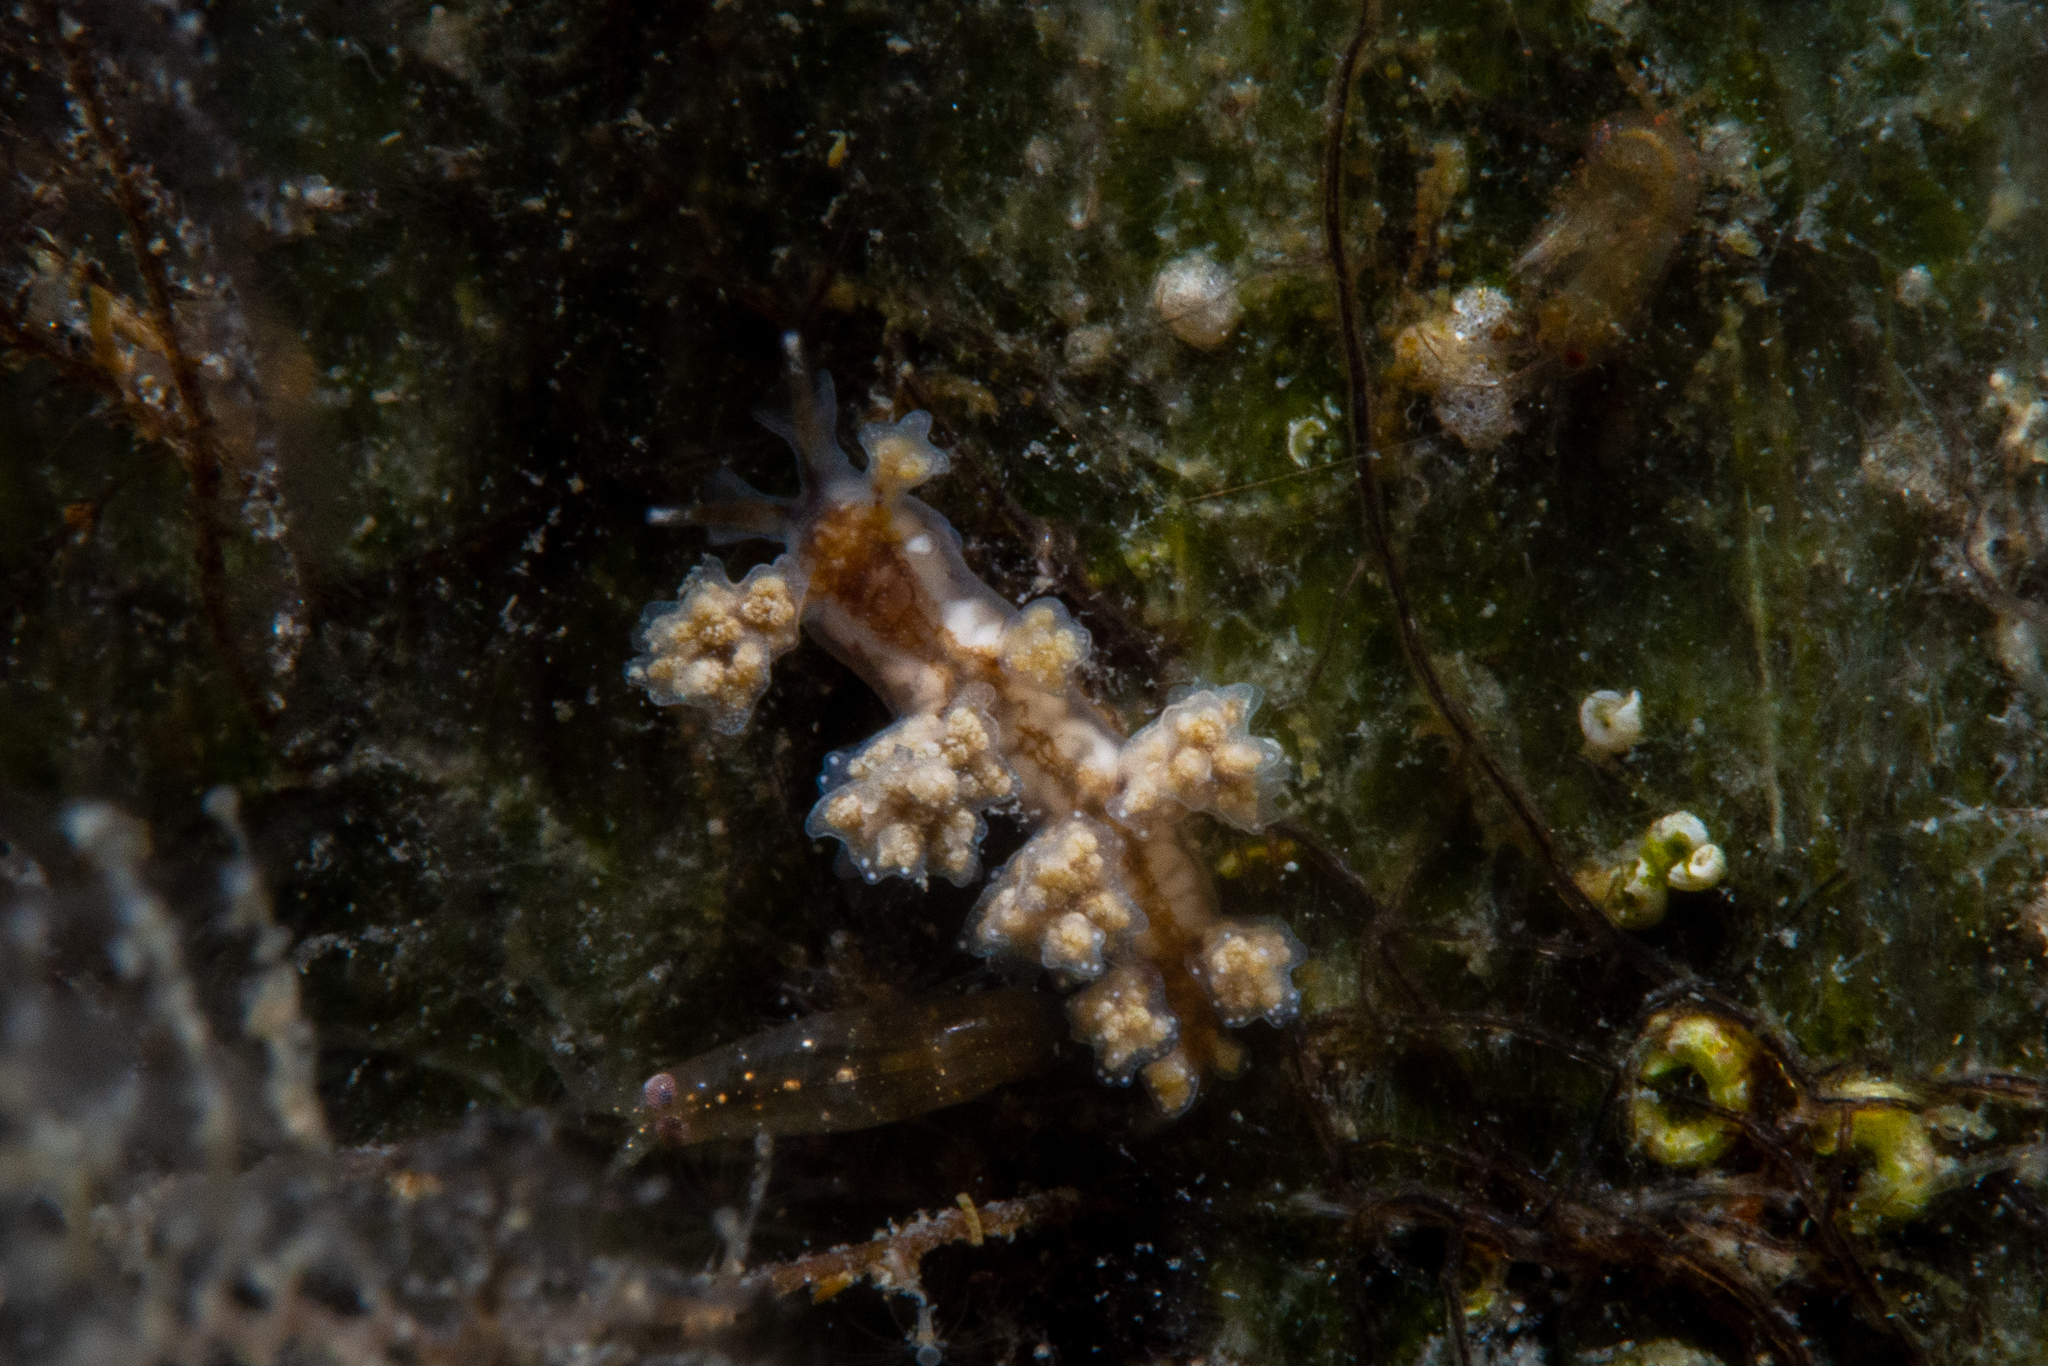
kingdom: Animalia
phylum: Mollusca
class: Gastropoda
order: Nudibranchia
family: Dotidae
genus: Doto
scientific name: Doto pita
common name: Pita doto
